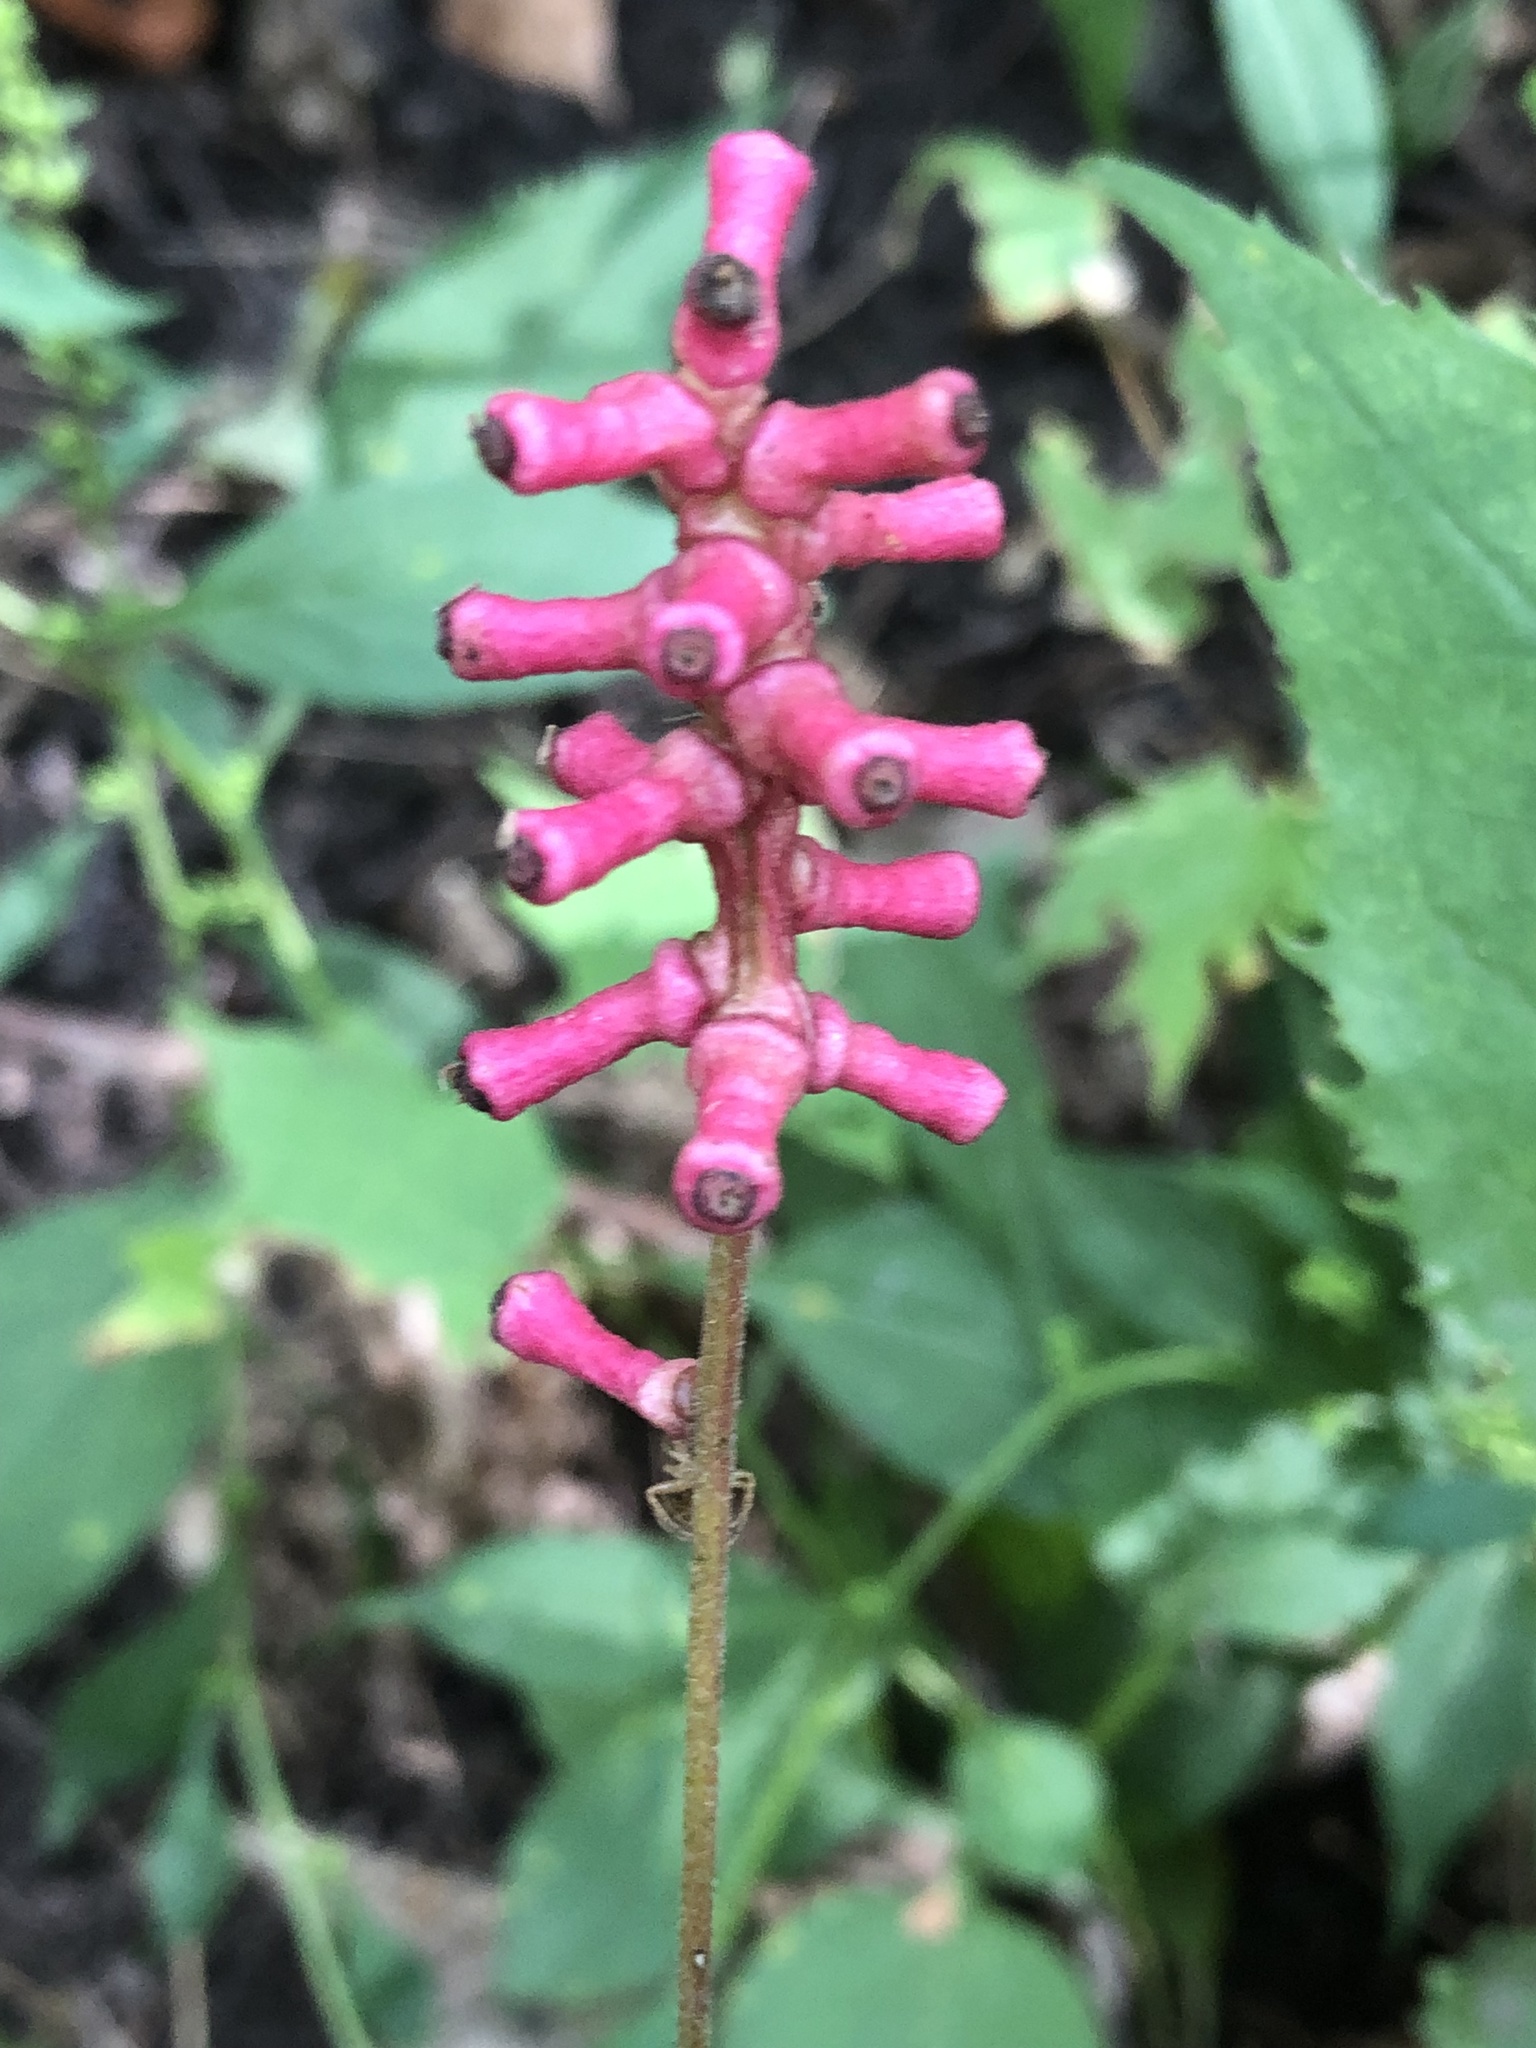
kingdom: Plantae
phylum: Tracheophyta
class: Magnoliopsida
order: Ranunculales
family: Ranunculaceae
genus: Actaea
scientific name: Actaea pachypoda
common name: Doll's-eyes
